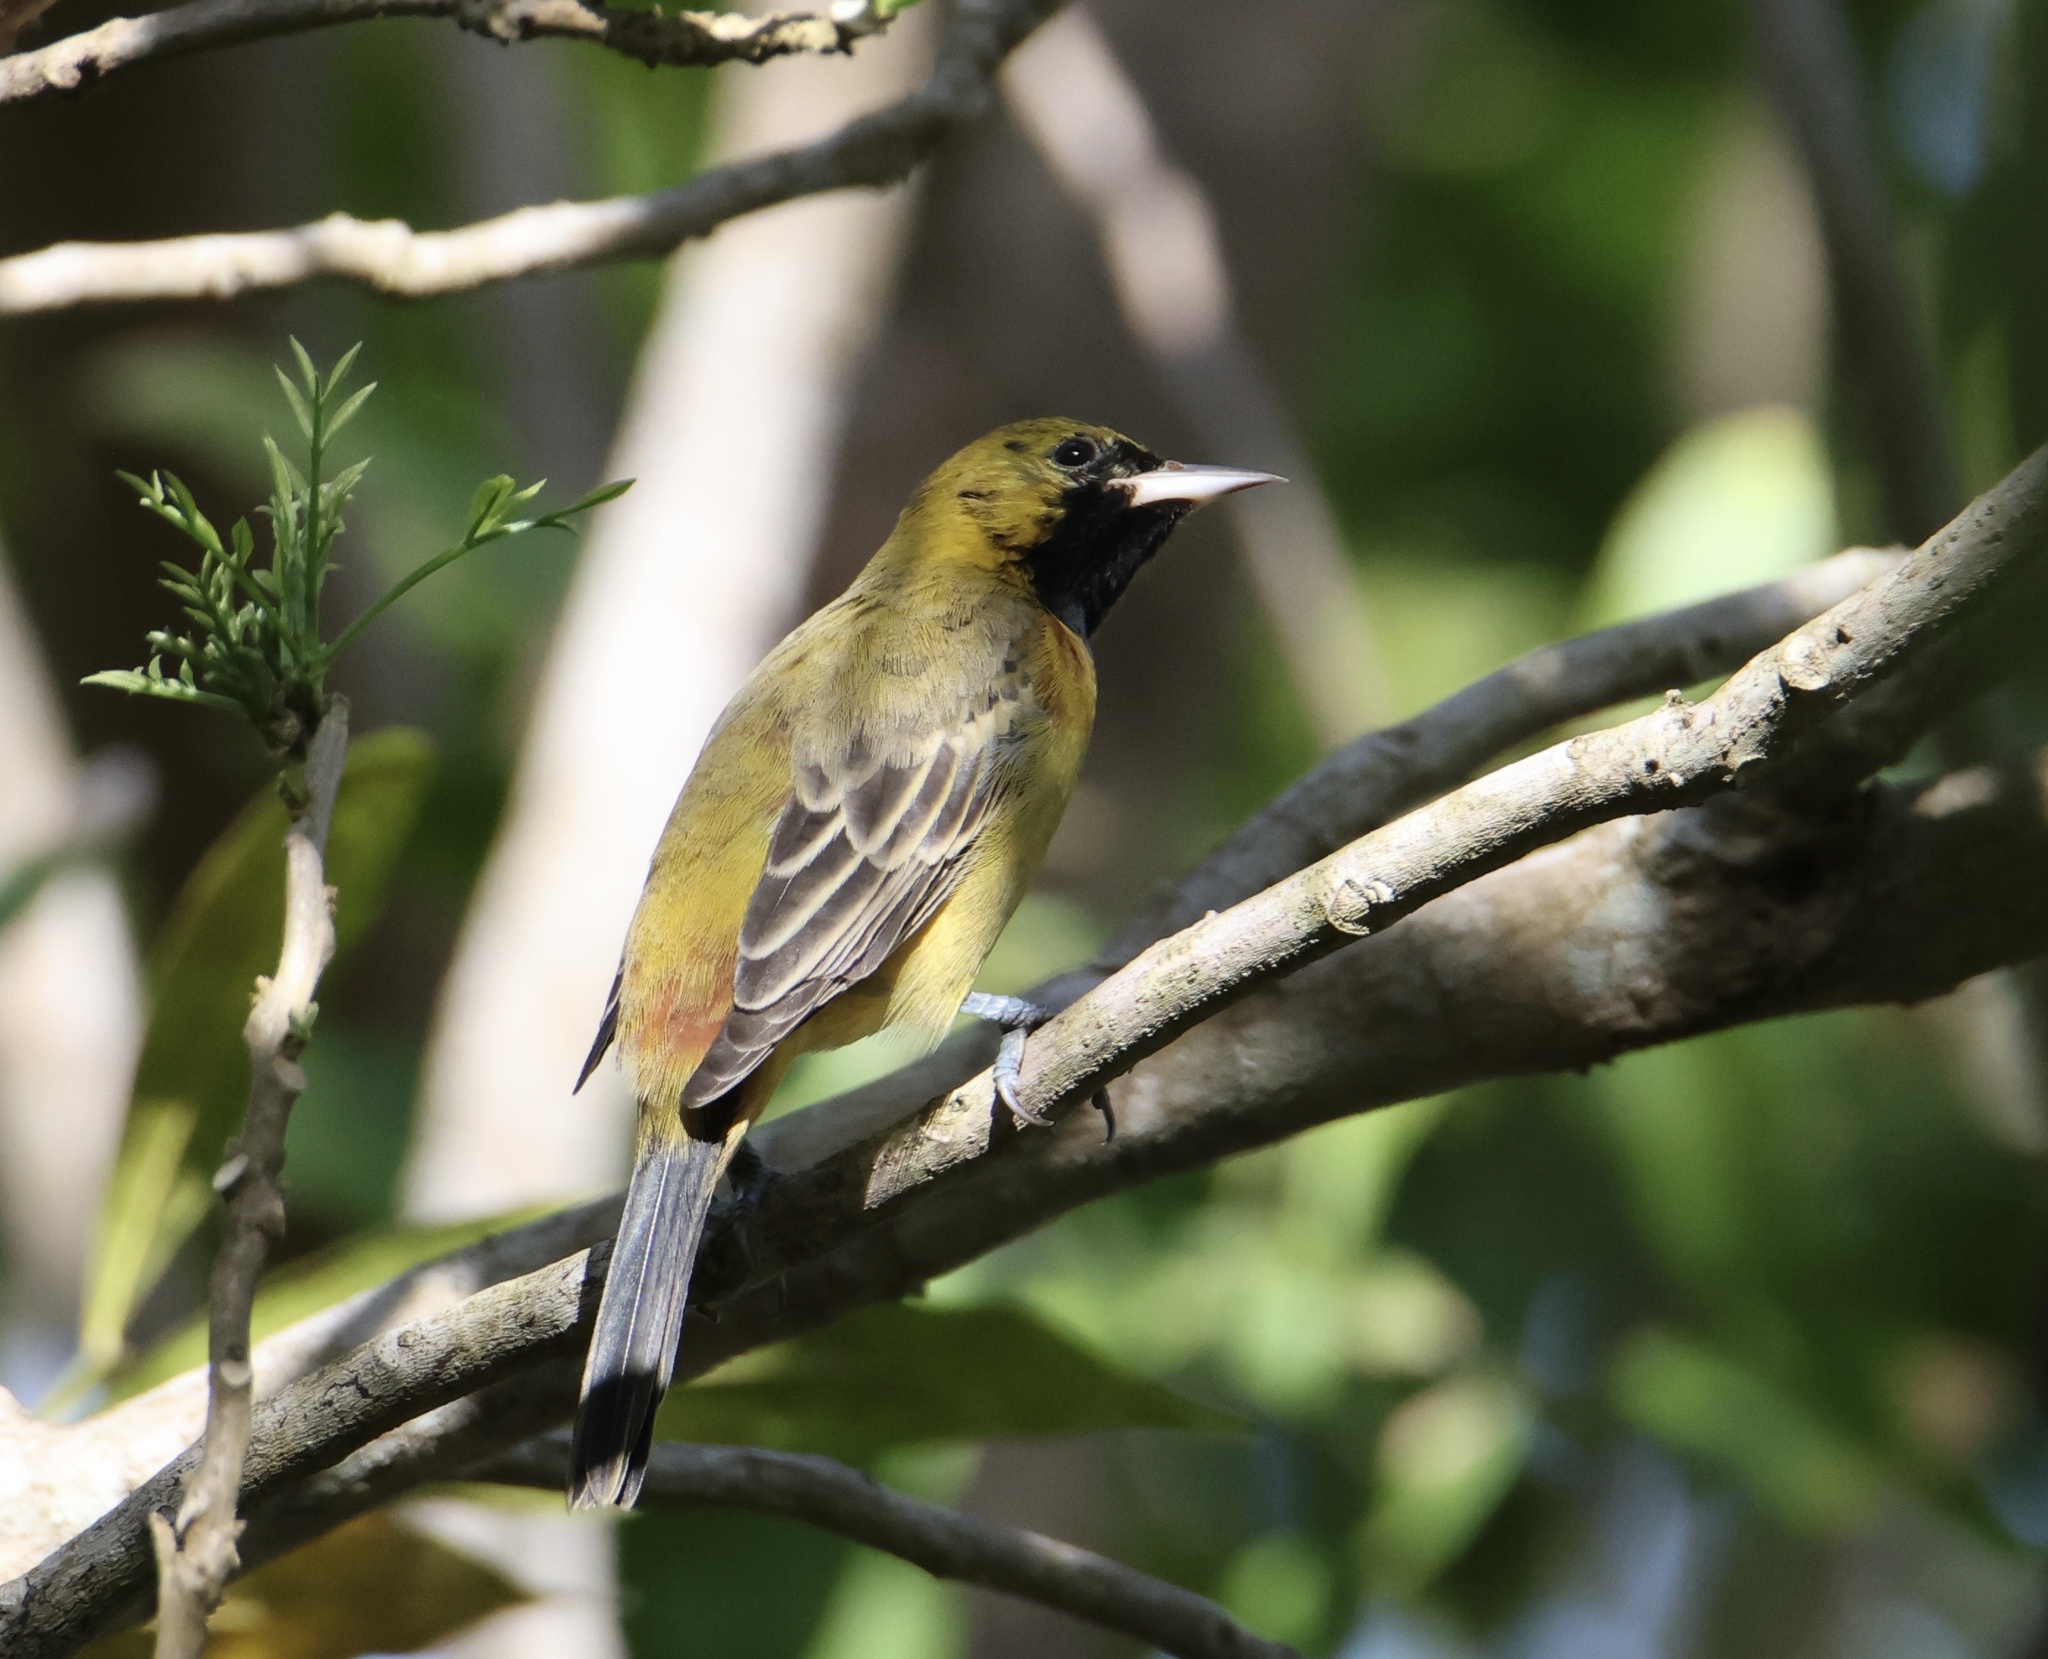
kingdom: Animalia
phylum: Chordata
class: Aves
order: Passeriformes
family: Icteridae
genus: Icterus
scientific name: Icterus spurius
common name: Orchard oriole
